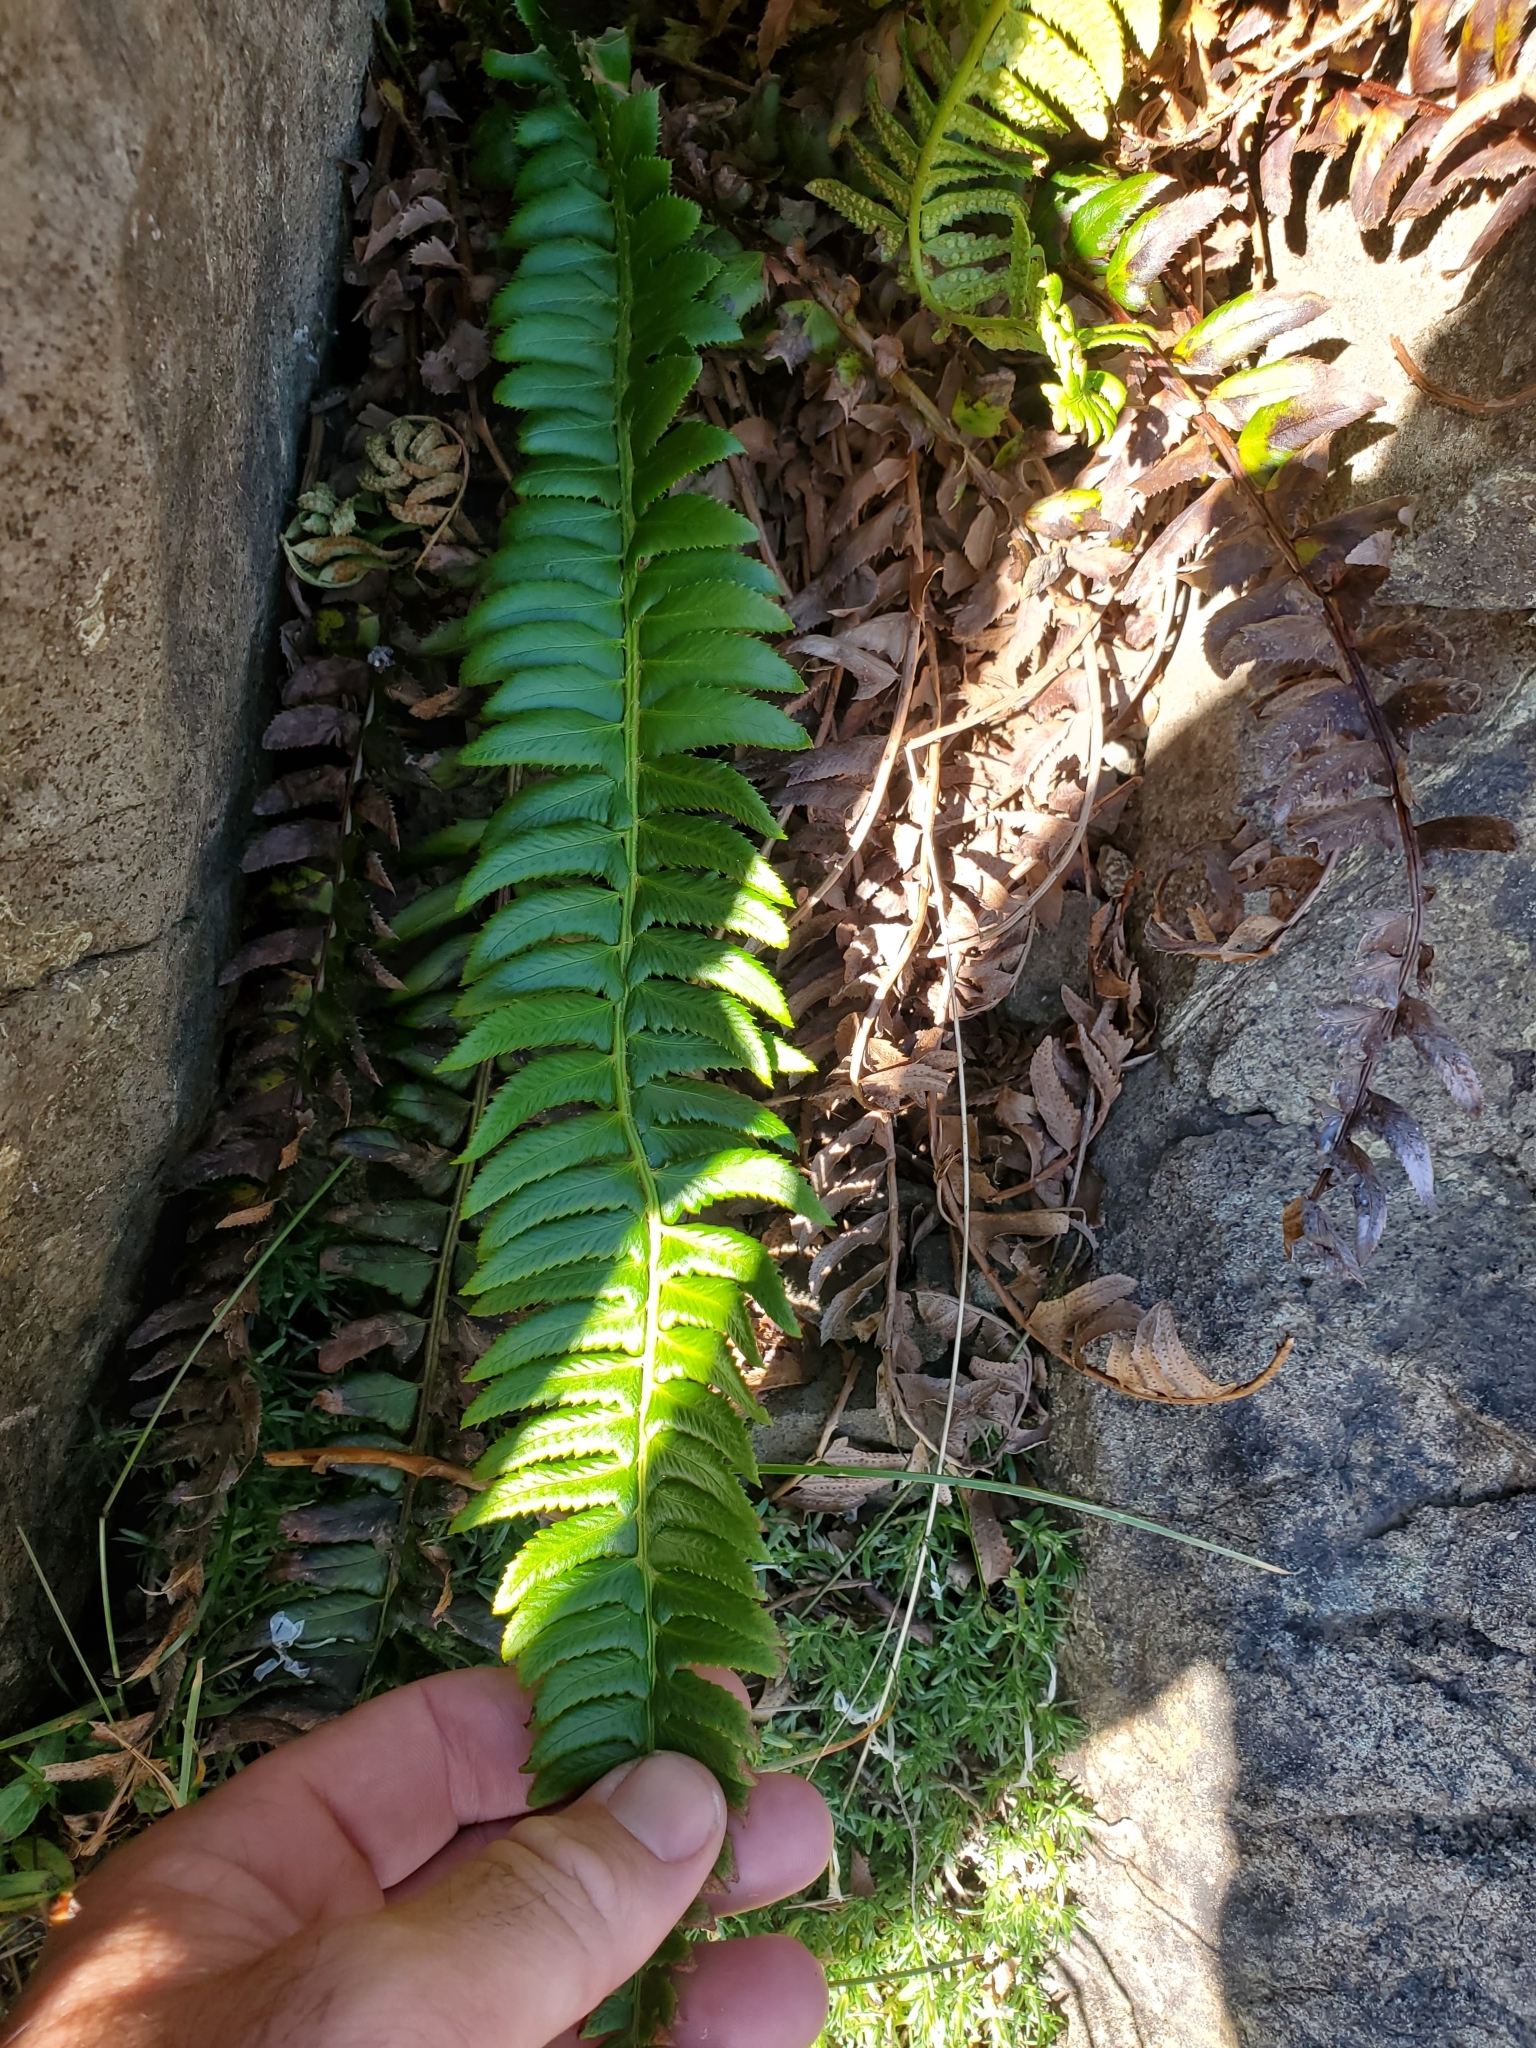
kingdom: Plantae
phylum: Tracheophyta
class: Polypodiopsida
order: Polypodiales
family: Dryopteridaceae
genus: Polystichum
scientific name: Polystichum lonchitis
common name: Holly fern
